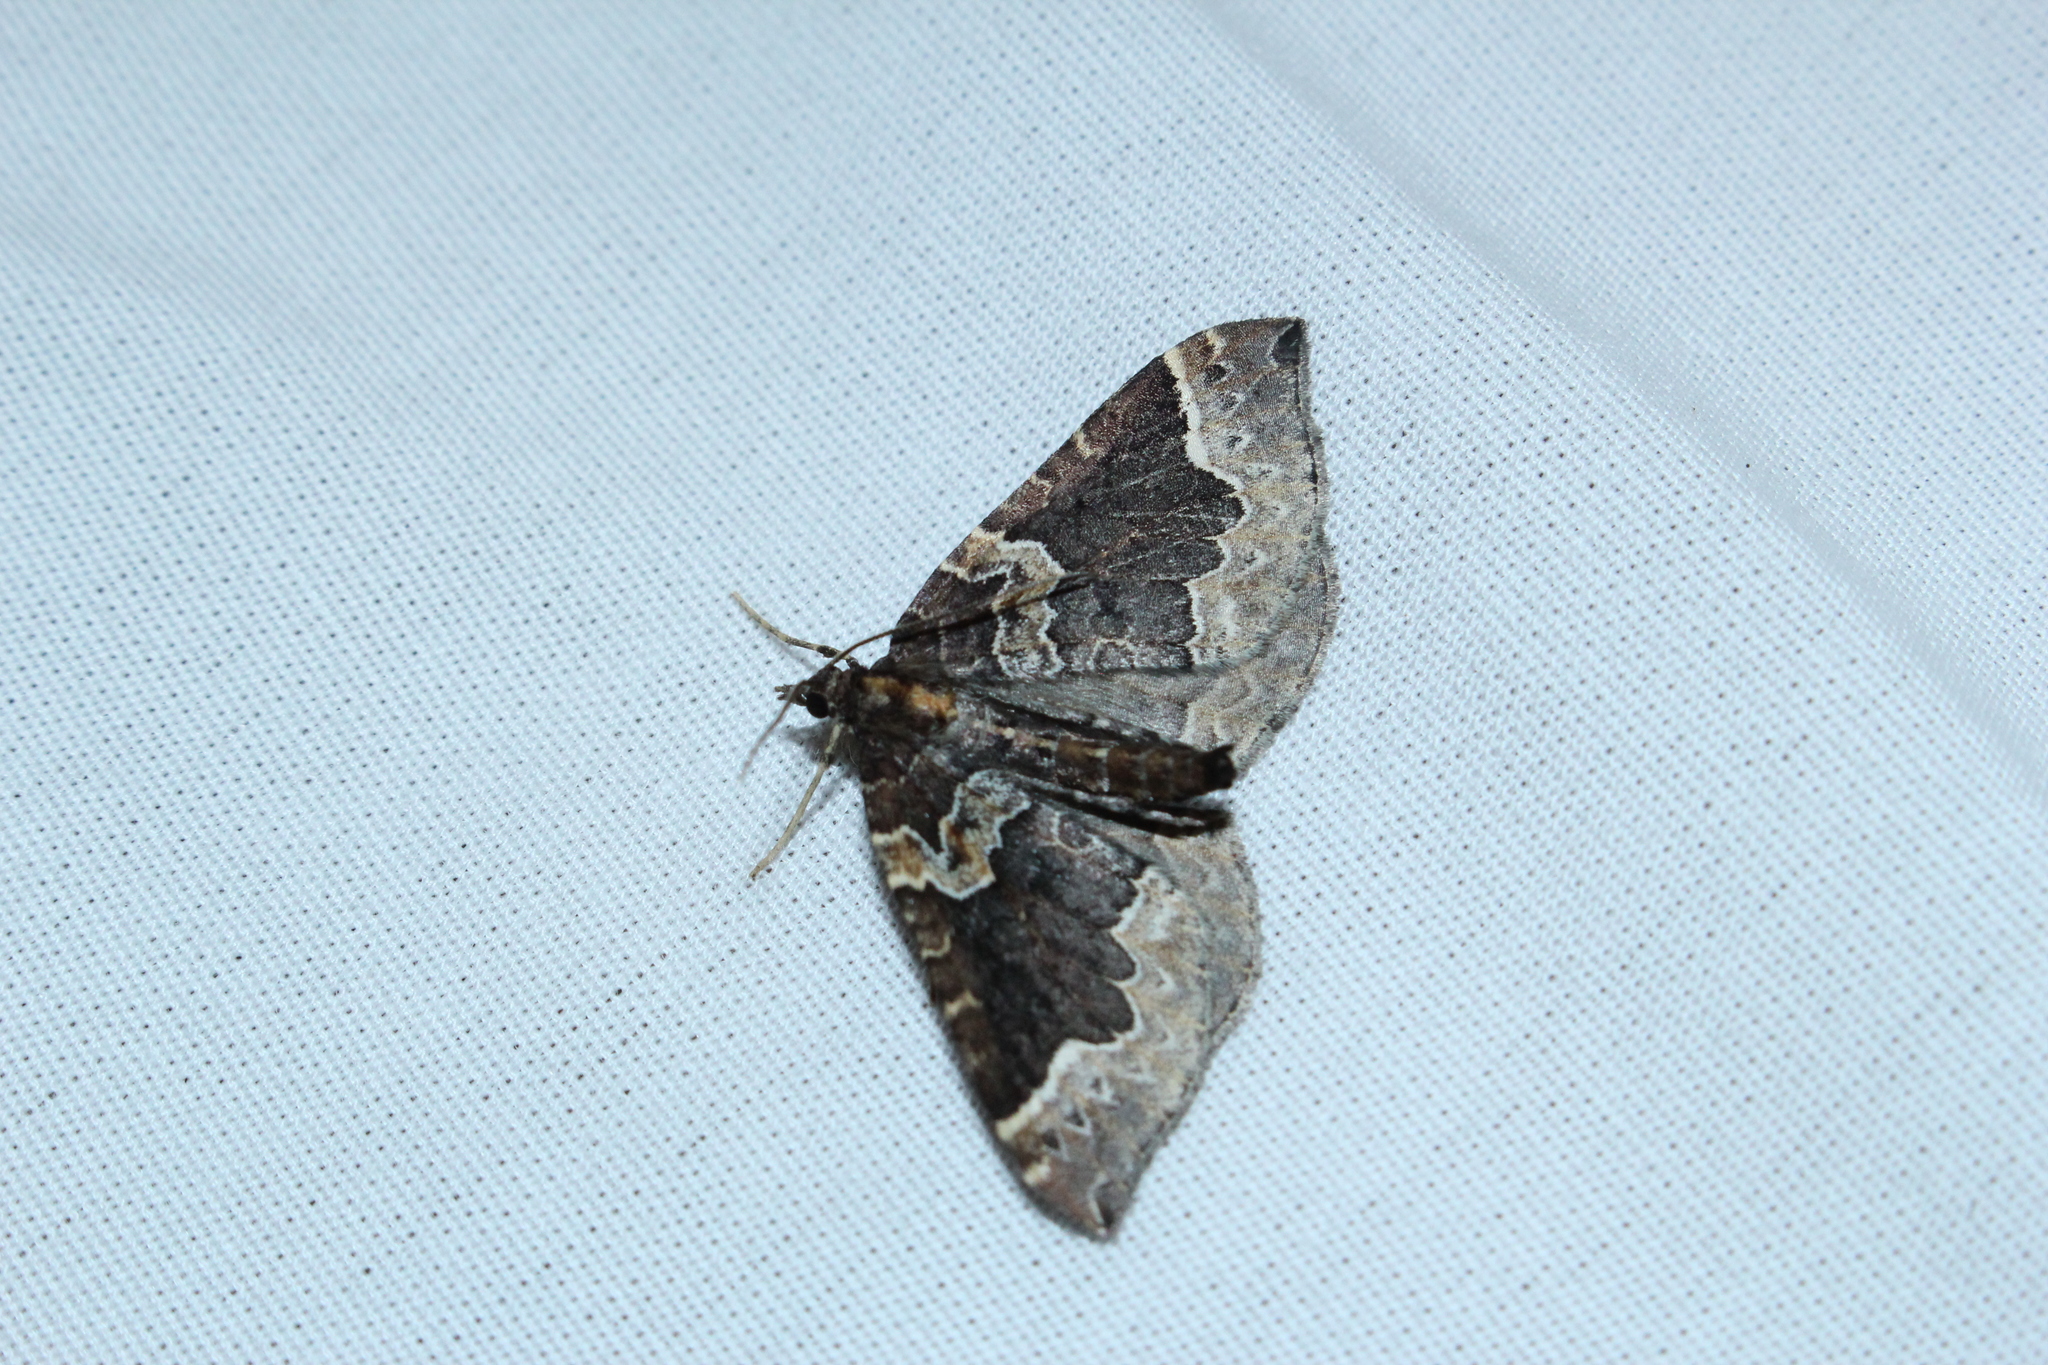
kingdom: Animalia
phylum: Arthropoda
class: Insecta
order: Lepidoptera
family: Geometridae
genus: Eulithis
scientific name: Eulithis serrataria
